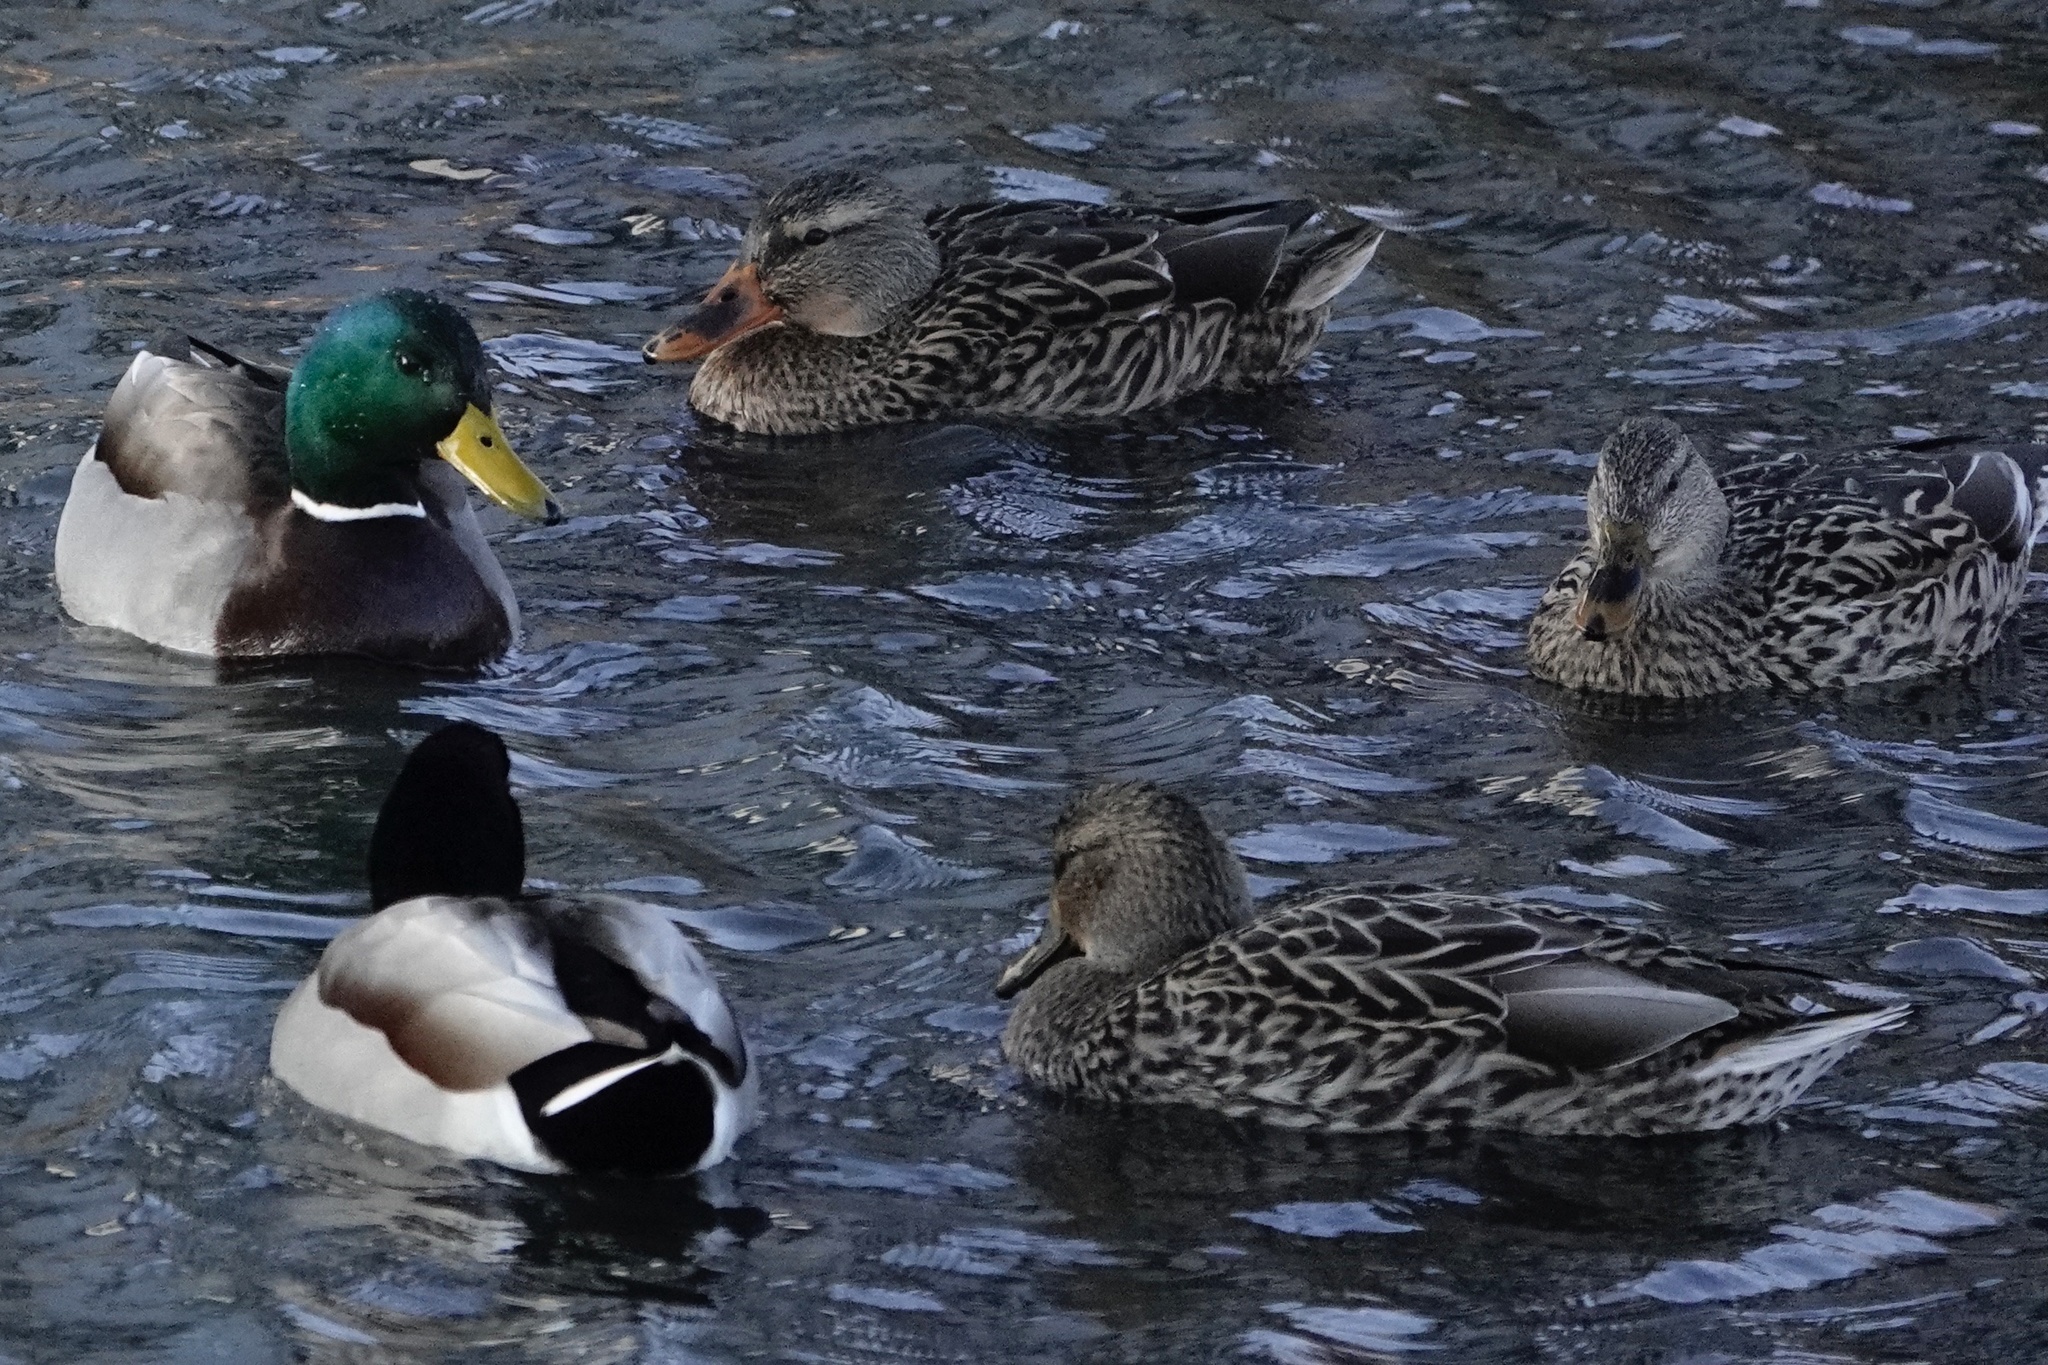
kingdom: Animalia
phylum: Chordata
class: Aves
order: Anseriformes
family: Anatidae
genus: Anas
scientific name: Anas platyrhynchos
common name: Mallard
